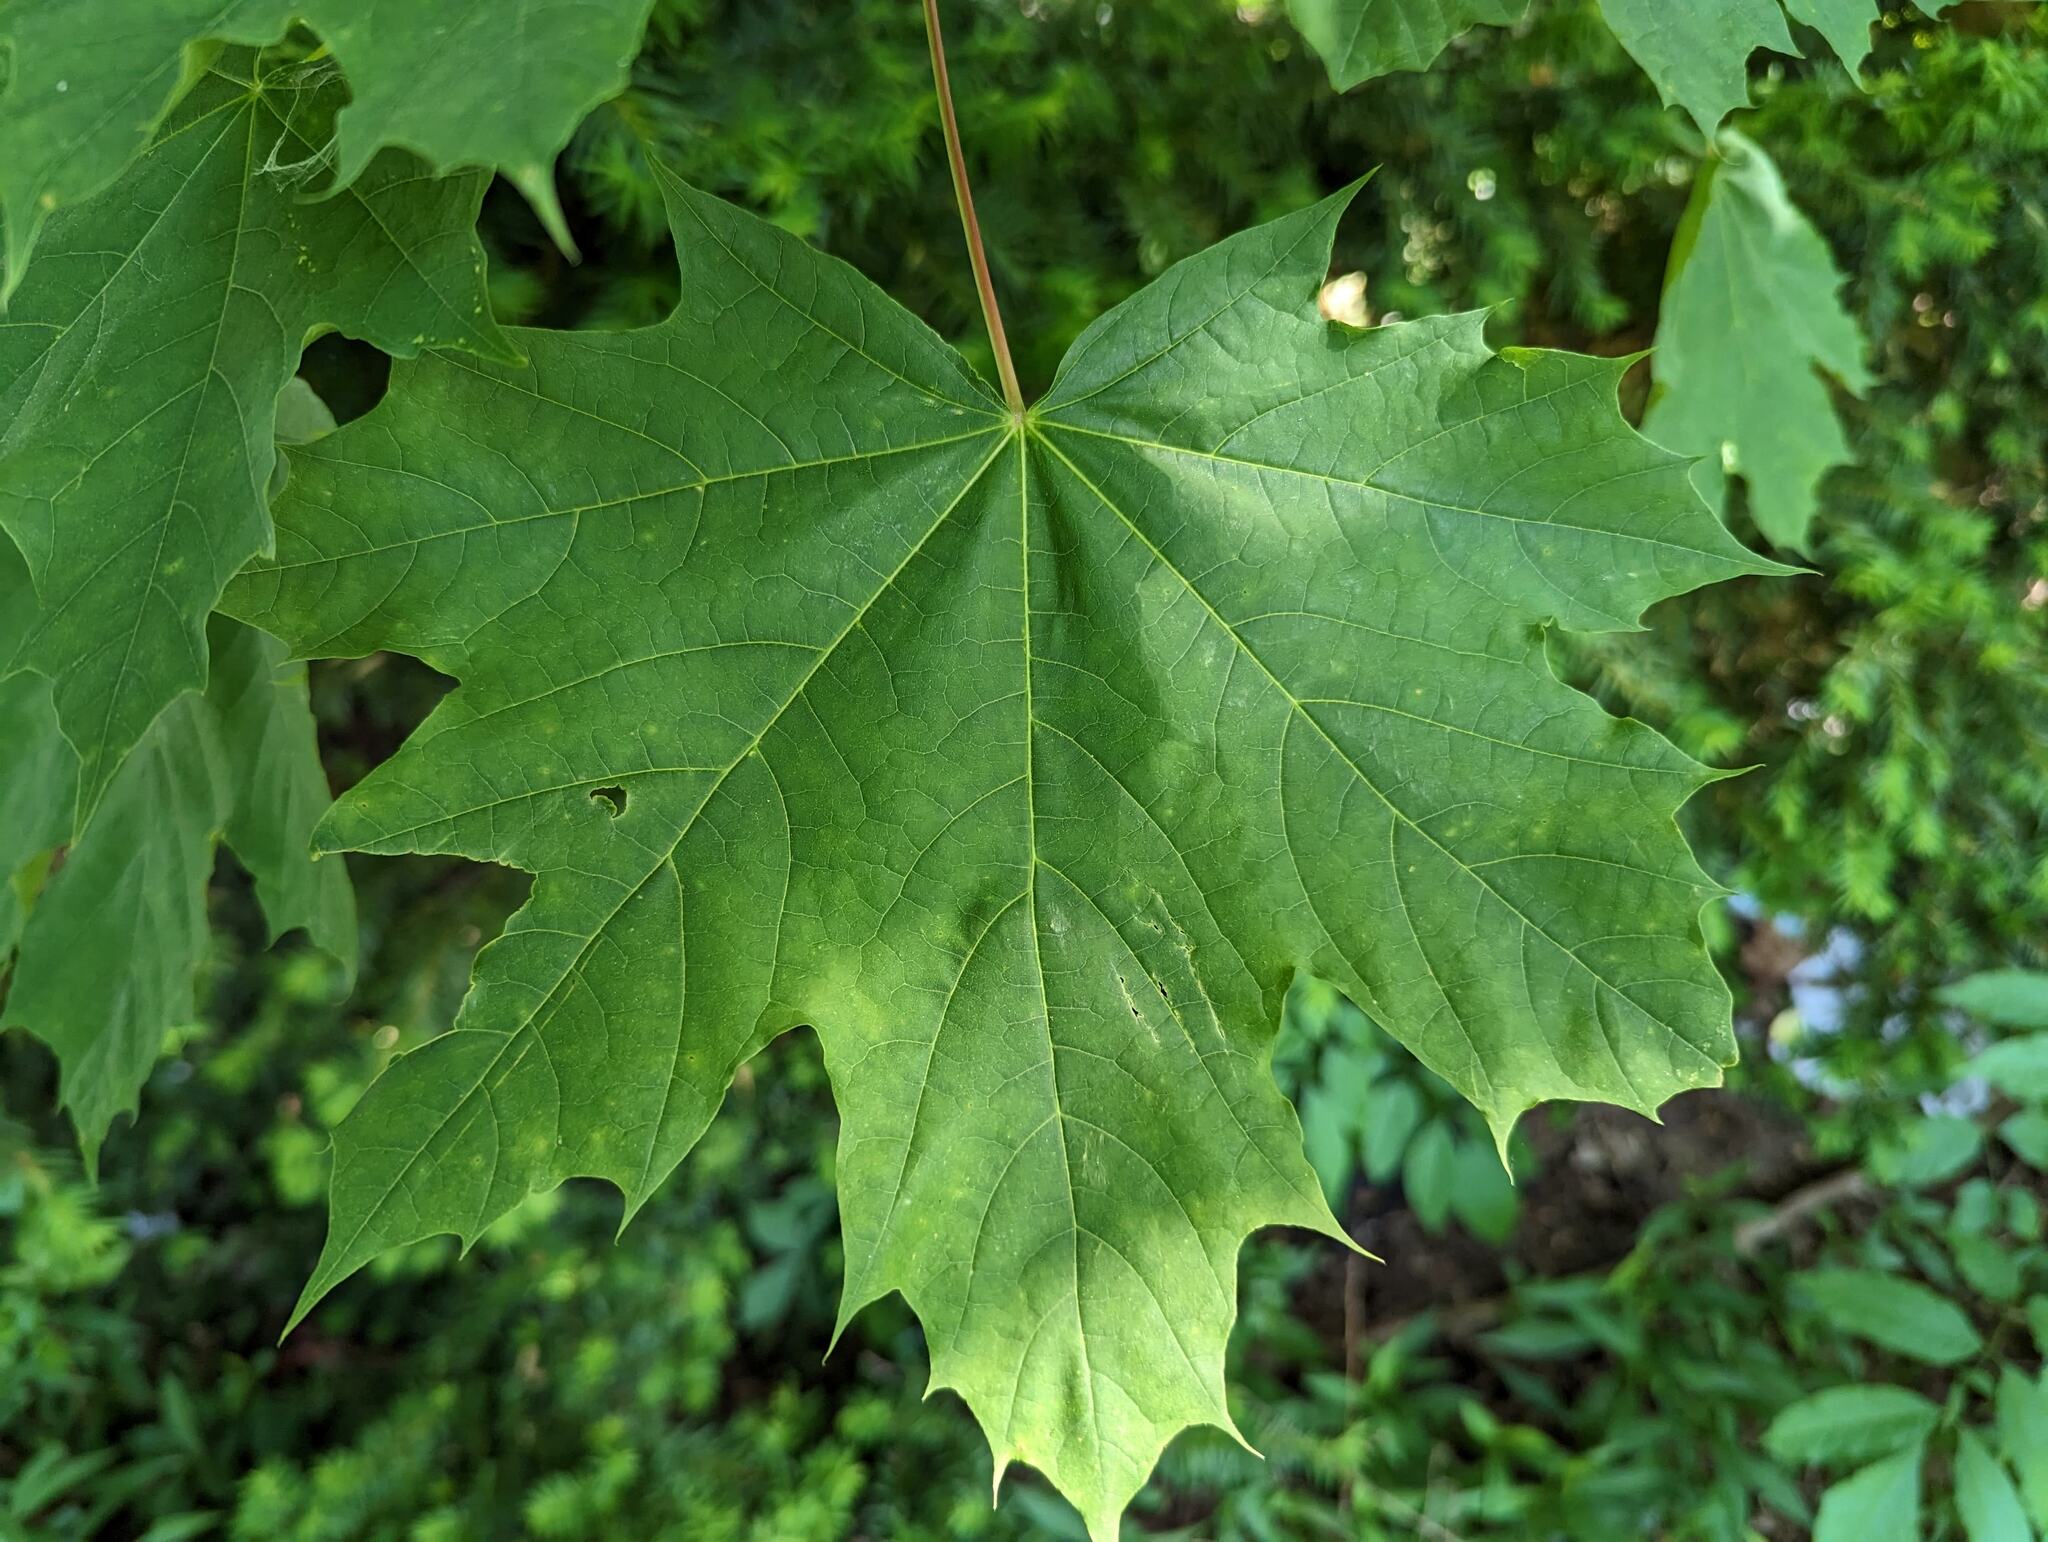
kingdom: Plantae
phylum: Tracheophyta
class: Magnoliopsida
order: Sapindales
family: Sapindaceae
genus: Acer
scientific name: Acer platanoides
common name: Norway maple
